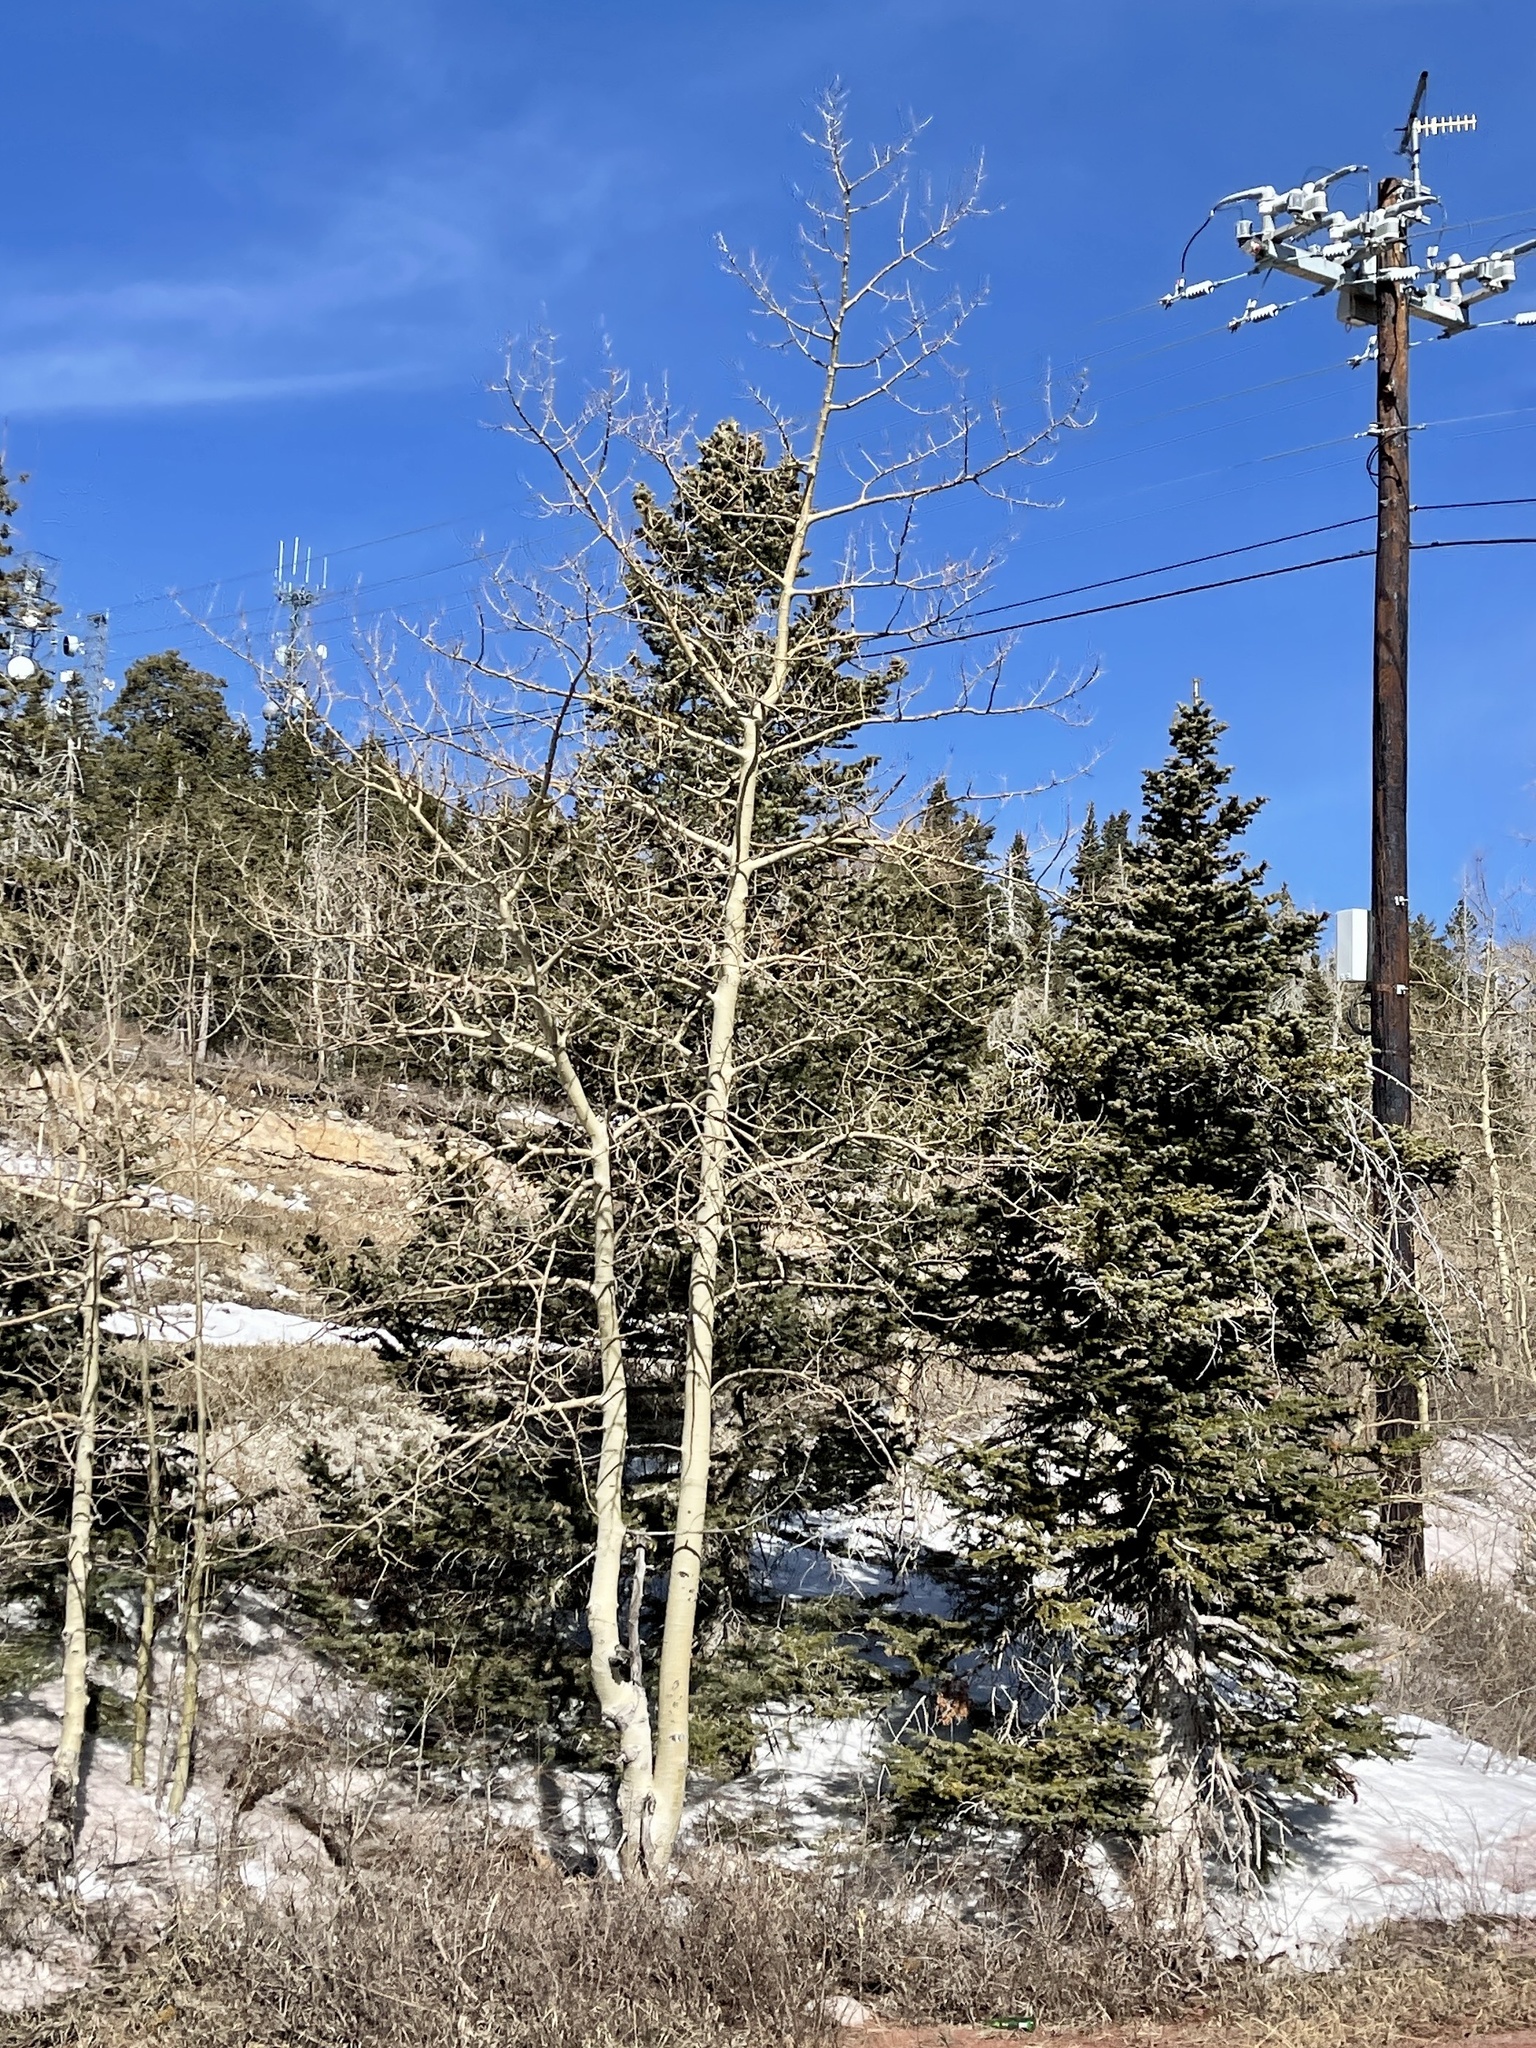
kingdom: Plantae
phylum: Tracheophyta
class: Magnoliopsida
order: Malpighiales
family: Salicaceae
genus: Populus
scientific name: Populus tremuloides
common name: Quaking aspen
